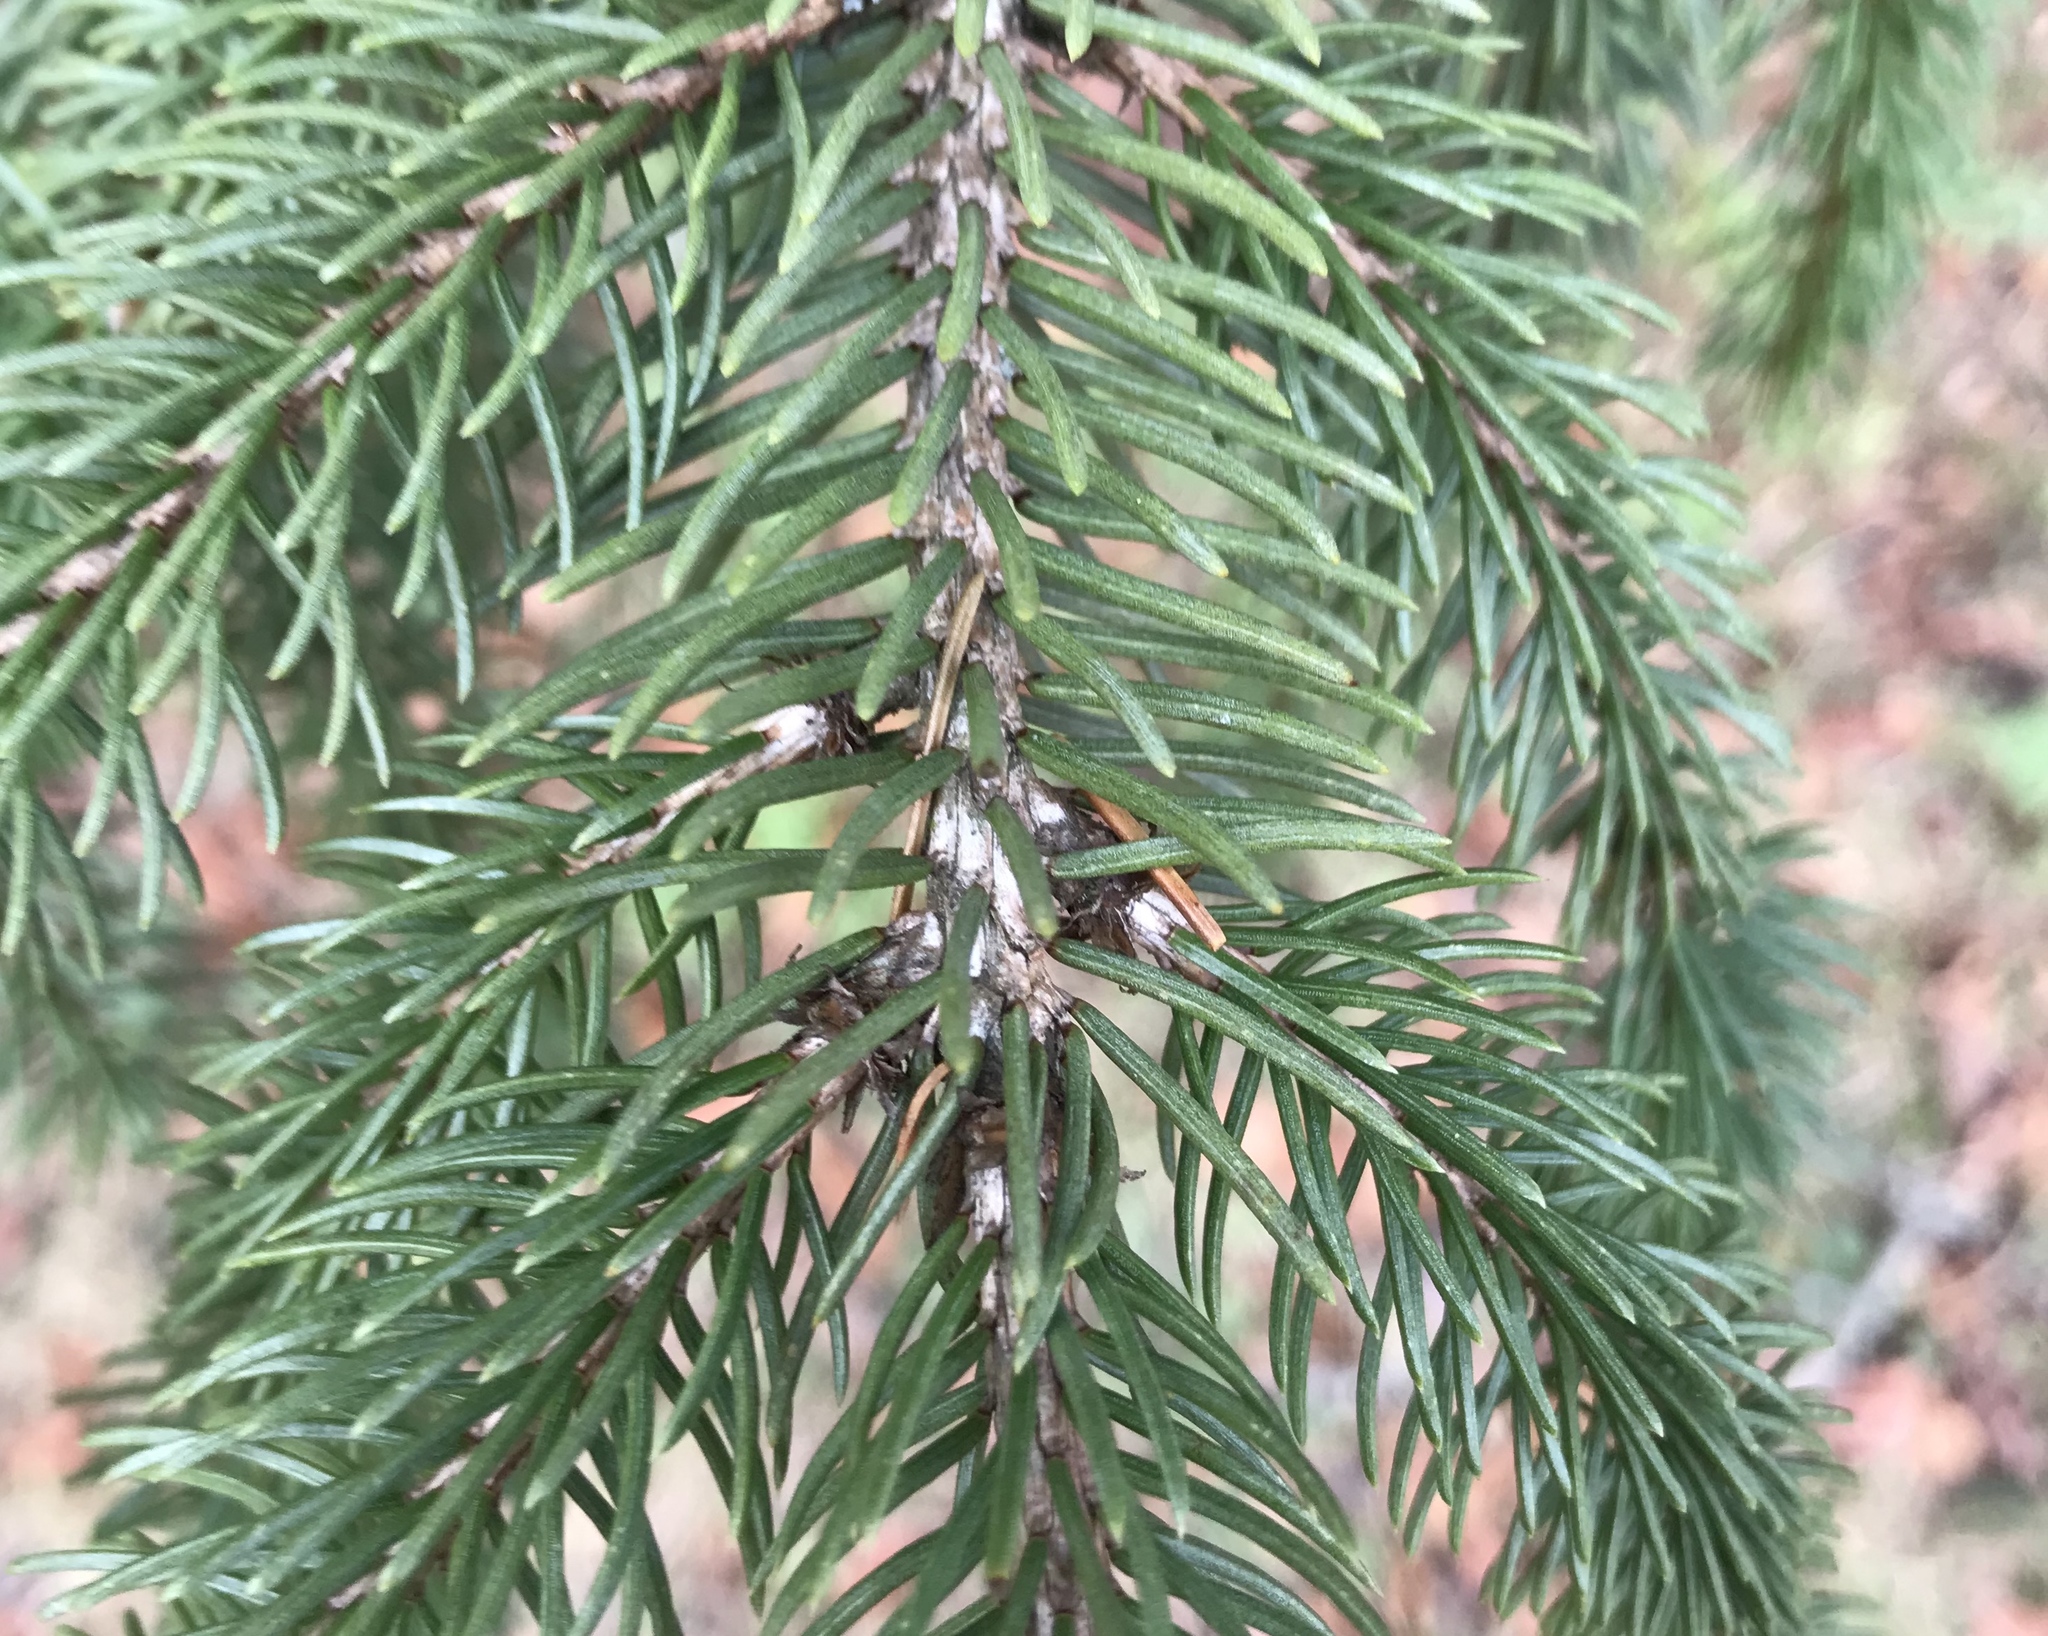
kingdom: Plantae
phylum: Tracheophyta
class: Pinopsida
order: Pinales
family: Pinaceae
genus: Picea
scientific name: Picea abies
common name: Norway spruce
